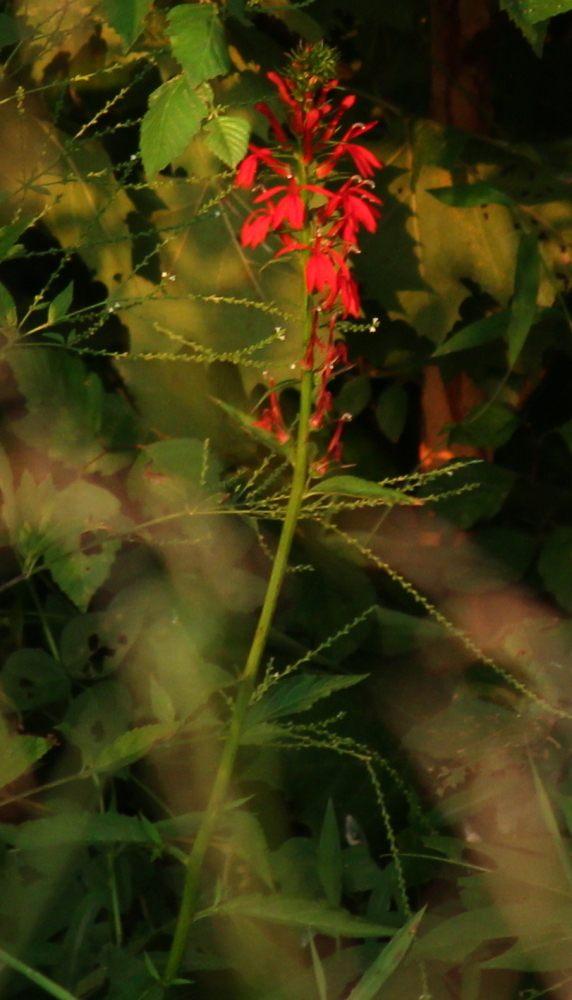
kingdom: Plantae
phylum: Tracheophyta
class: Magnoliopsida
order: Asterales
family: Campanulaceae
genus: Lobelia
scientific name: Lobelia cardinalis
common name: Cardinal flower
